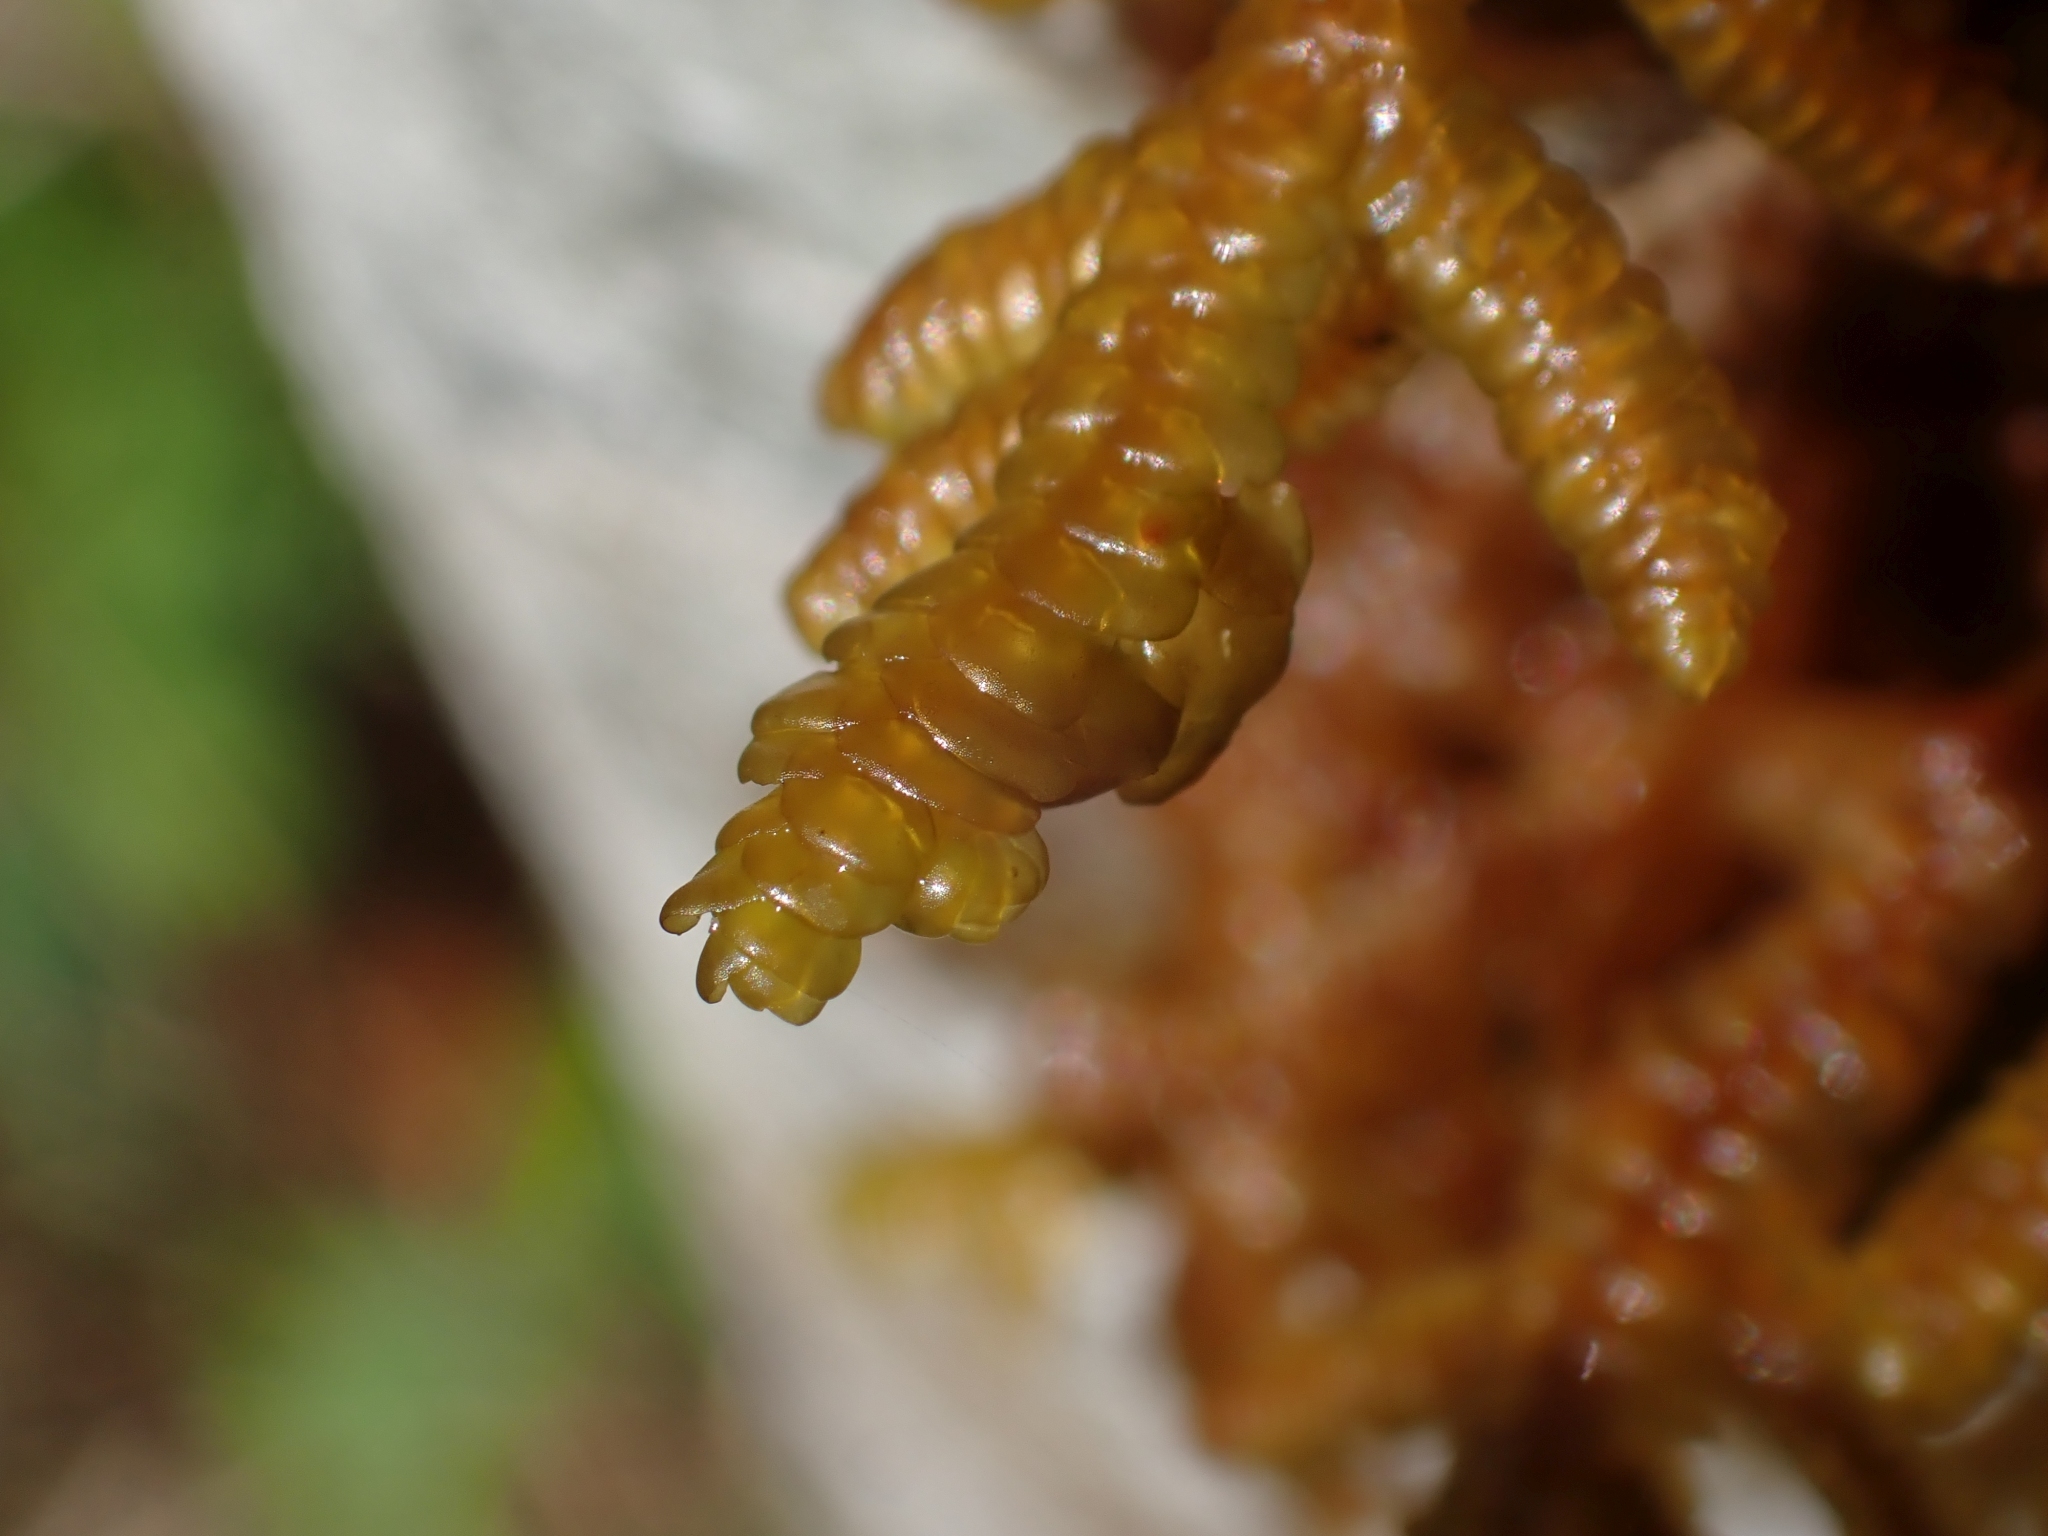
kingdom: Plantae
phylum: Marchantiophyta
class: Jungermanniopsida
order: Porellales
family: Porellaceae
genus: Porella
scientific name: Porella navicularis
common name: Tree ruffle liverwort
